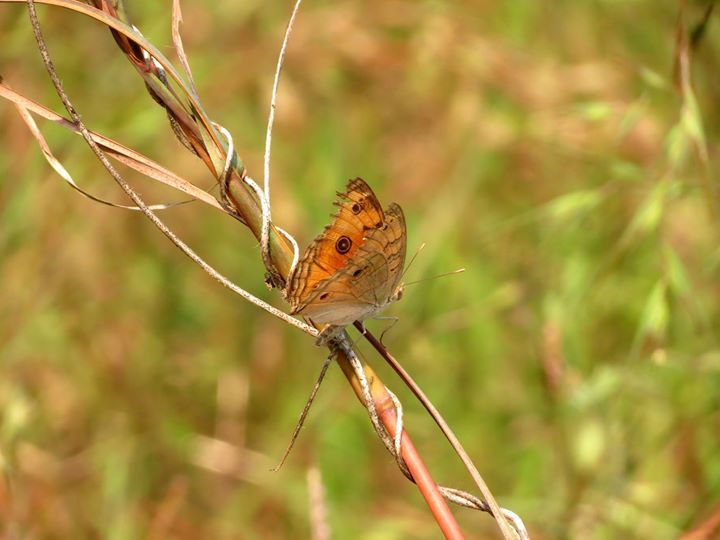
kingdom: Animalia
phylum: Arthropoda
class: Insecta
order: Lepidoptera
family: Nymphalidae
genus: Junonia
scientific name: Junonia almana
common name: Peacock pansy
